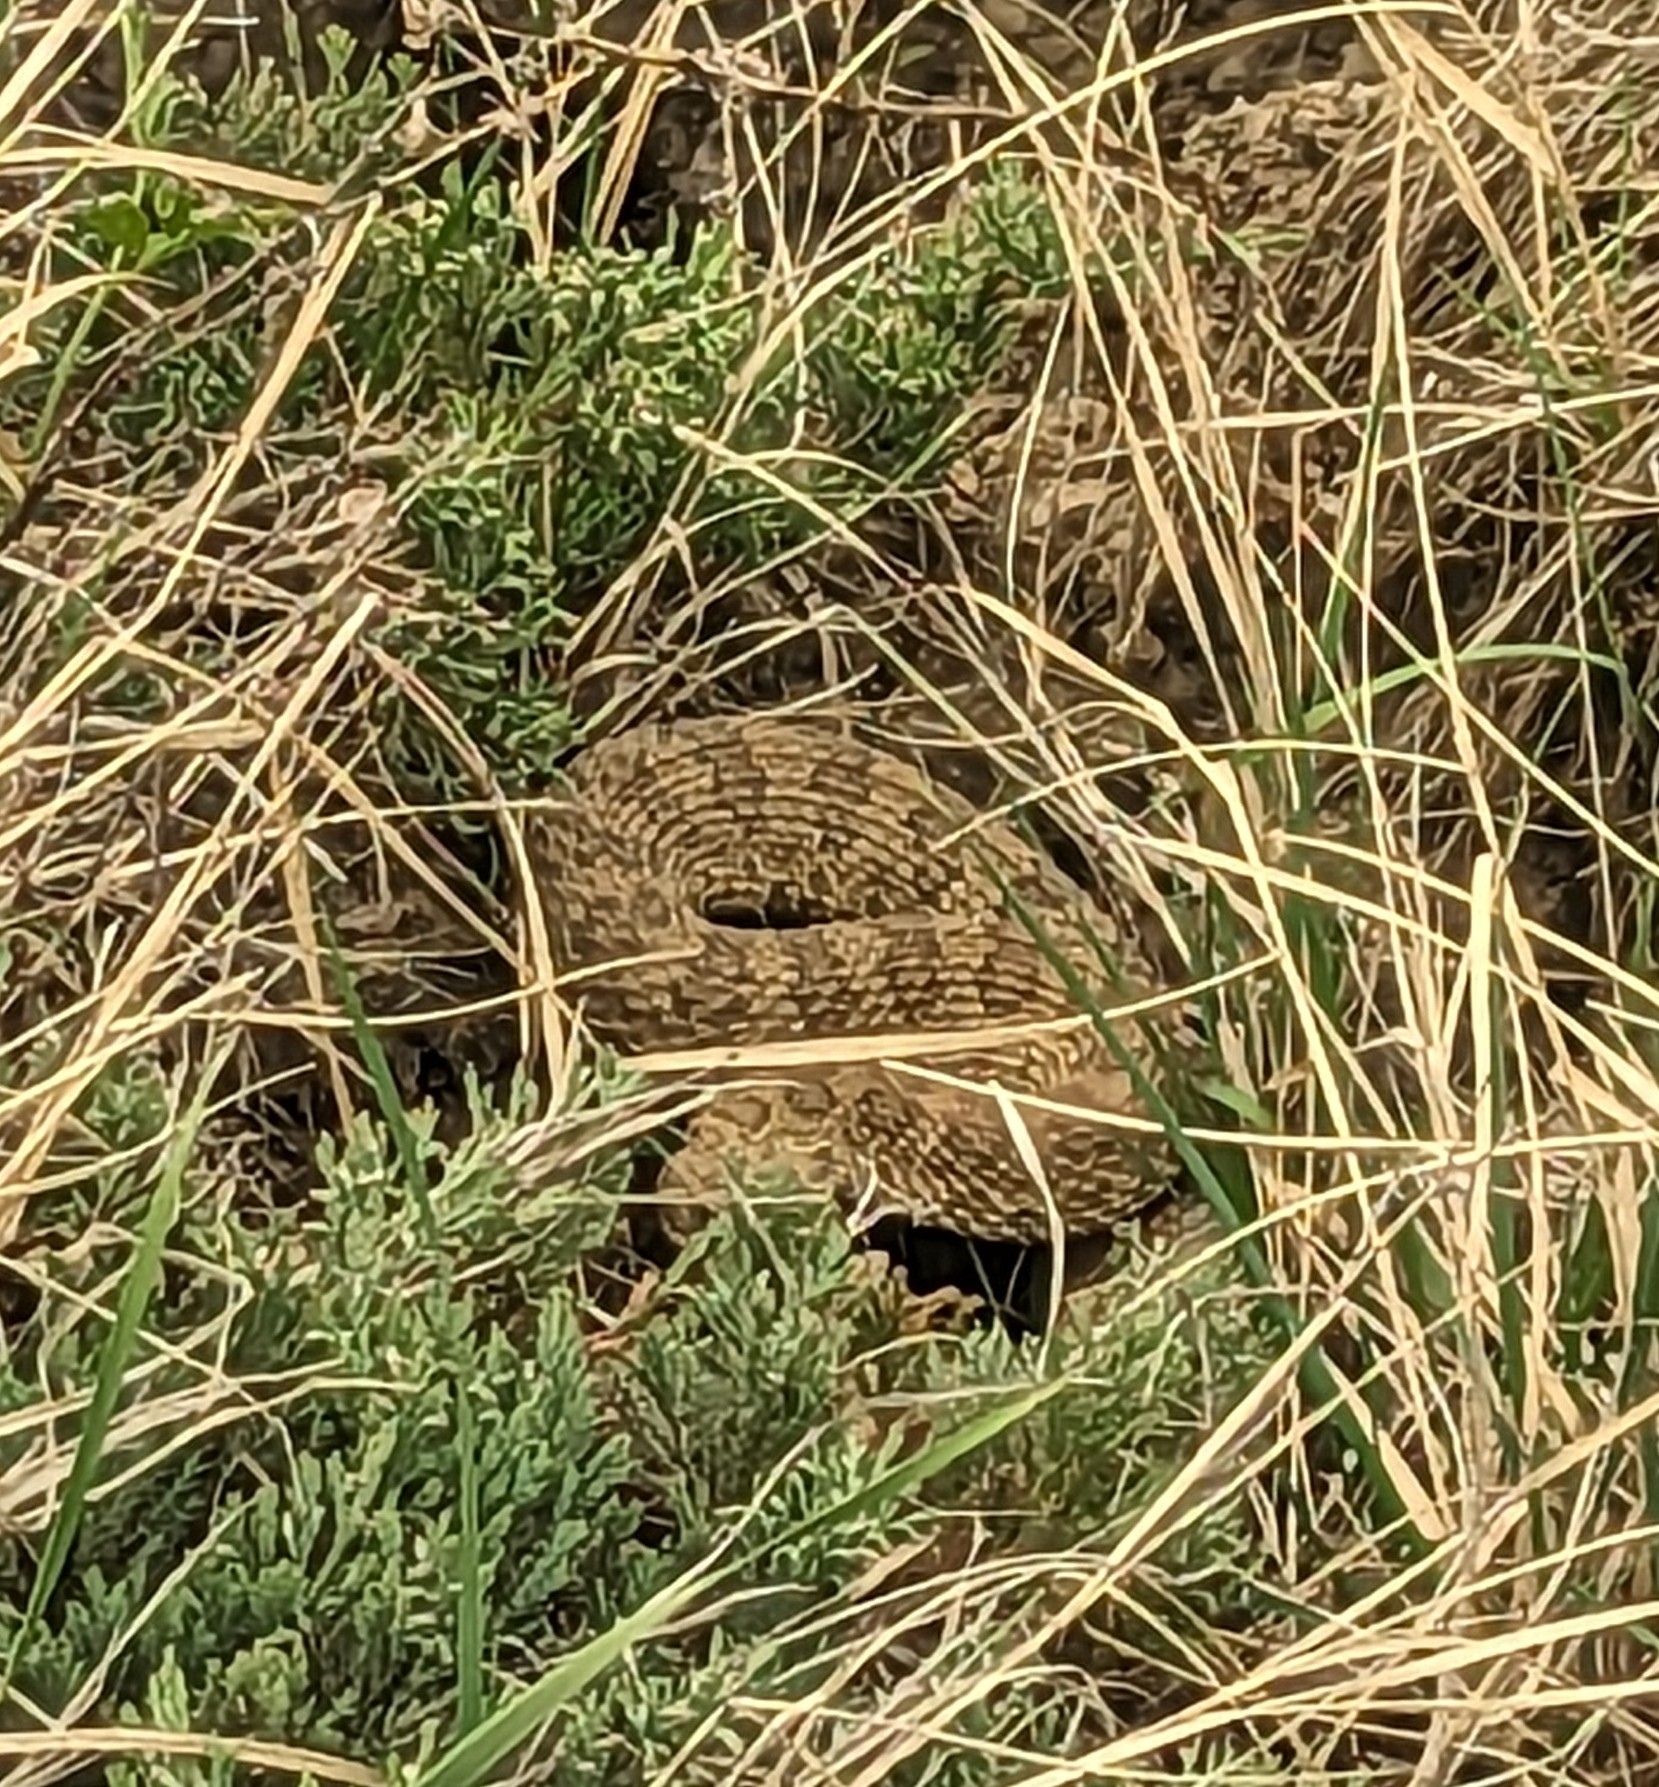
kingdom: Animalia
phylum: Chordata
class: Squamata
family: Viperidae
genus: Crotalus
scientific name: Crotalus viridis
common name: Prairie rattlesnake
